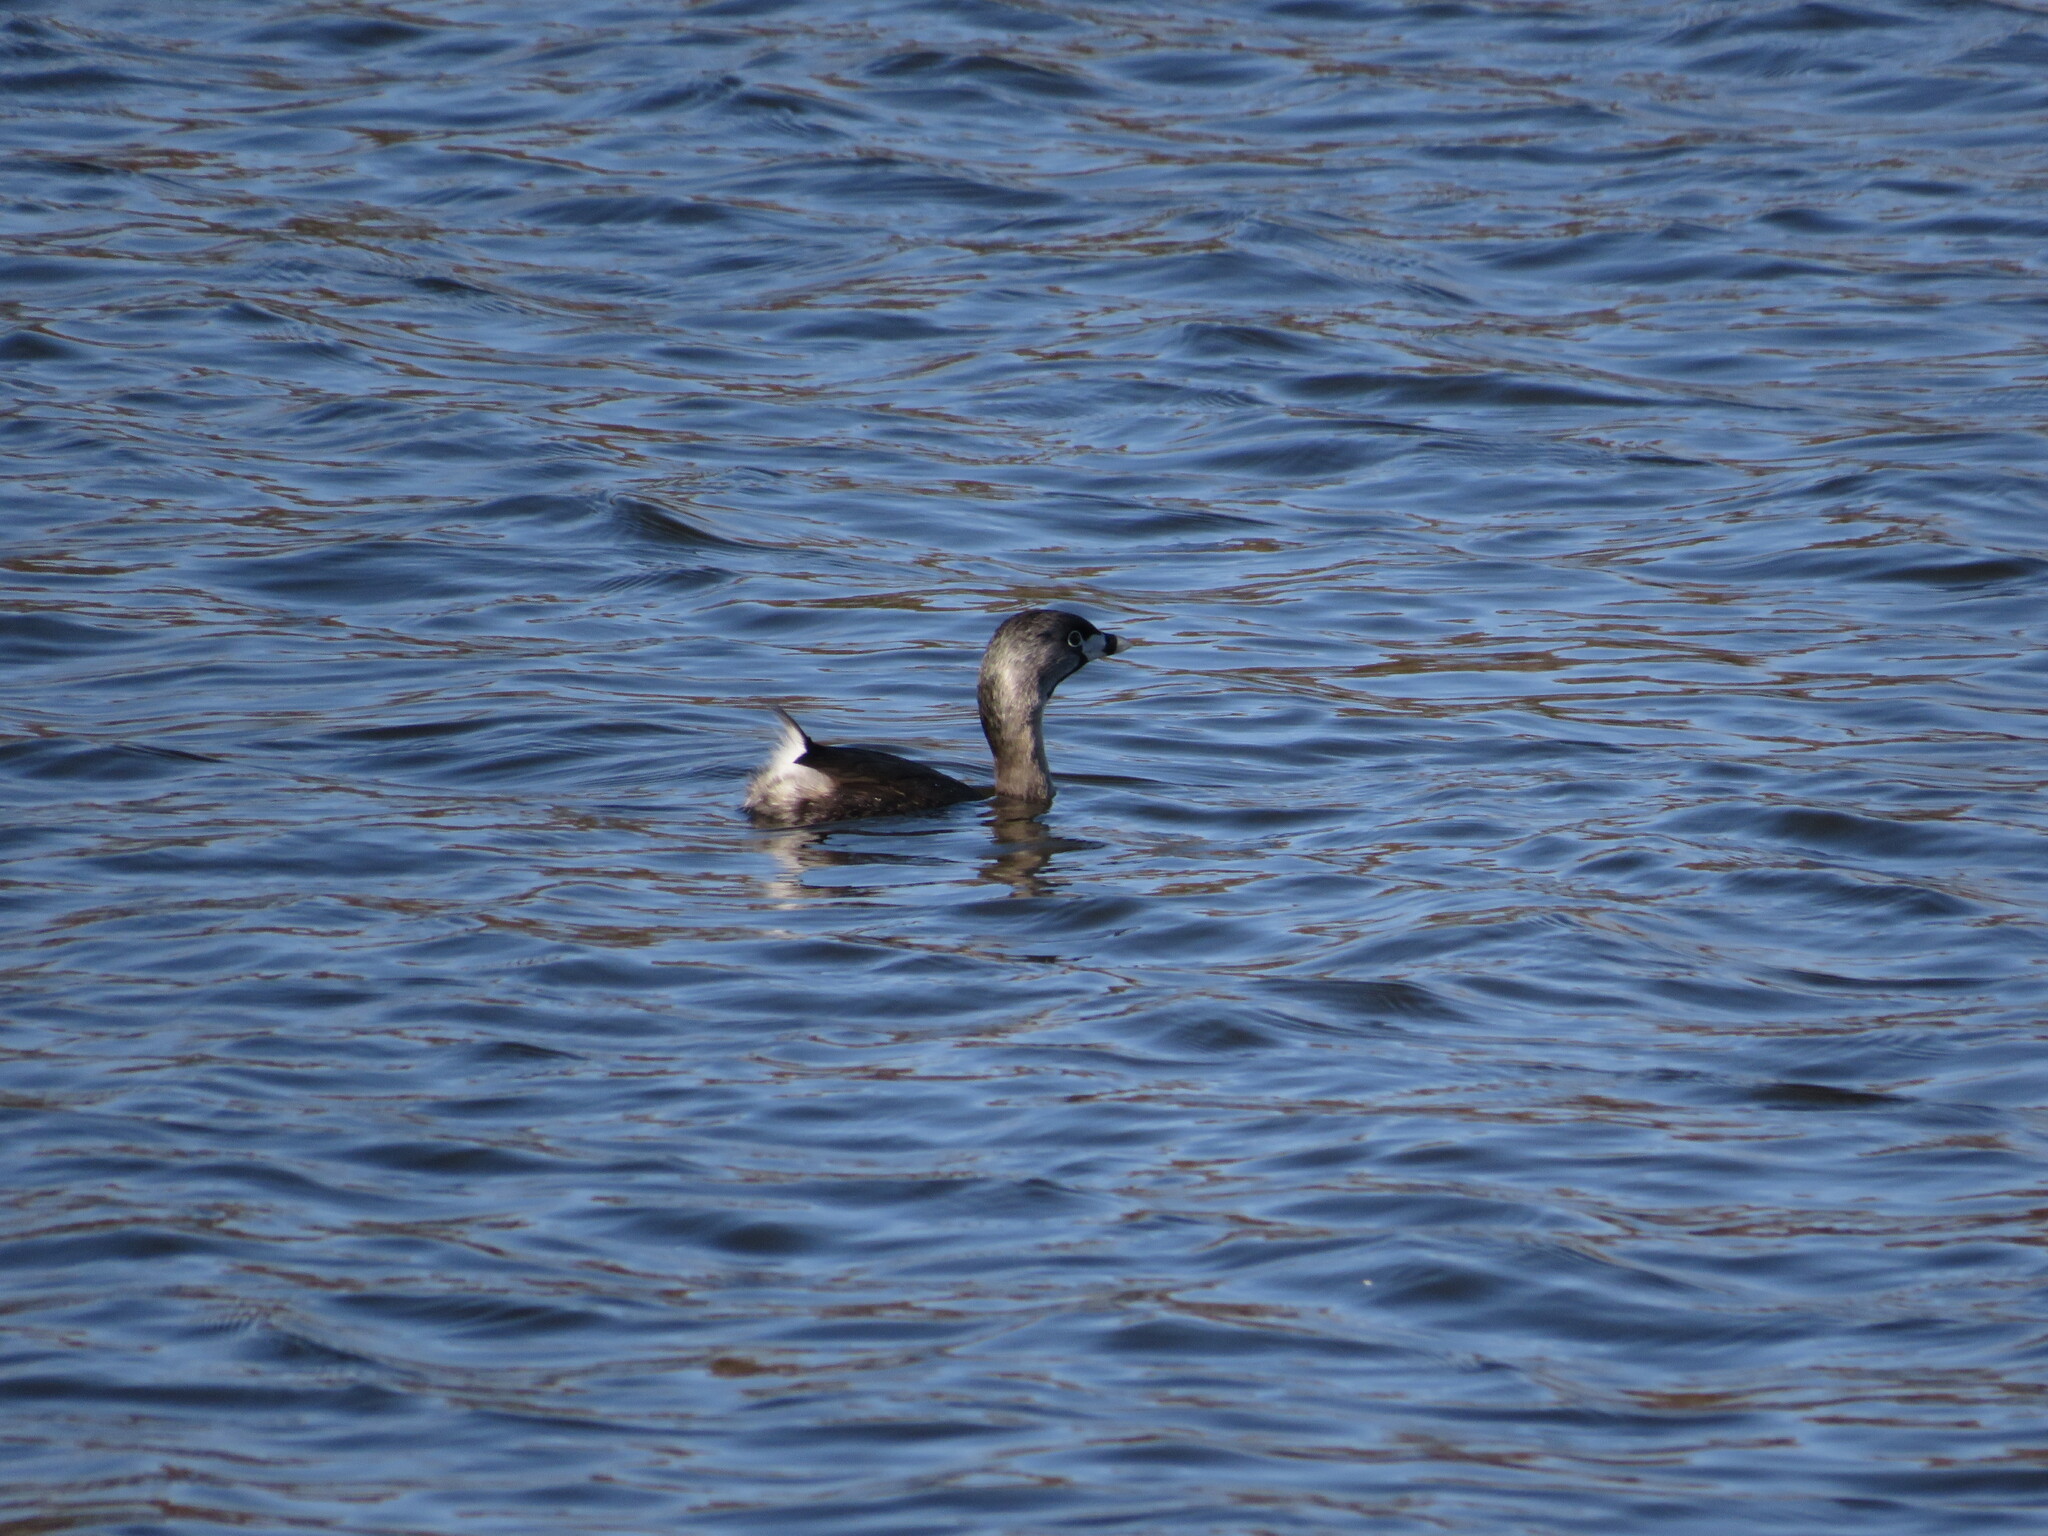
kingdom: Animalia
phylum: Chordata
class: Aves
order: Podicipediformes
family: Podicipedidae
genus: Podilymbus
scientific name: Podilymbus podiceps
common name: Pied-billed grebe
